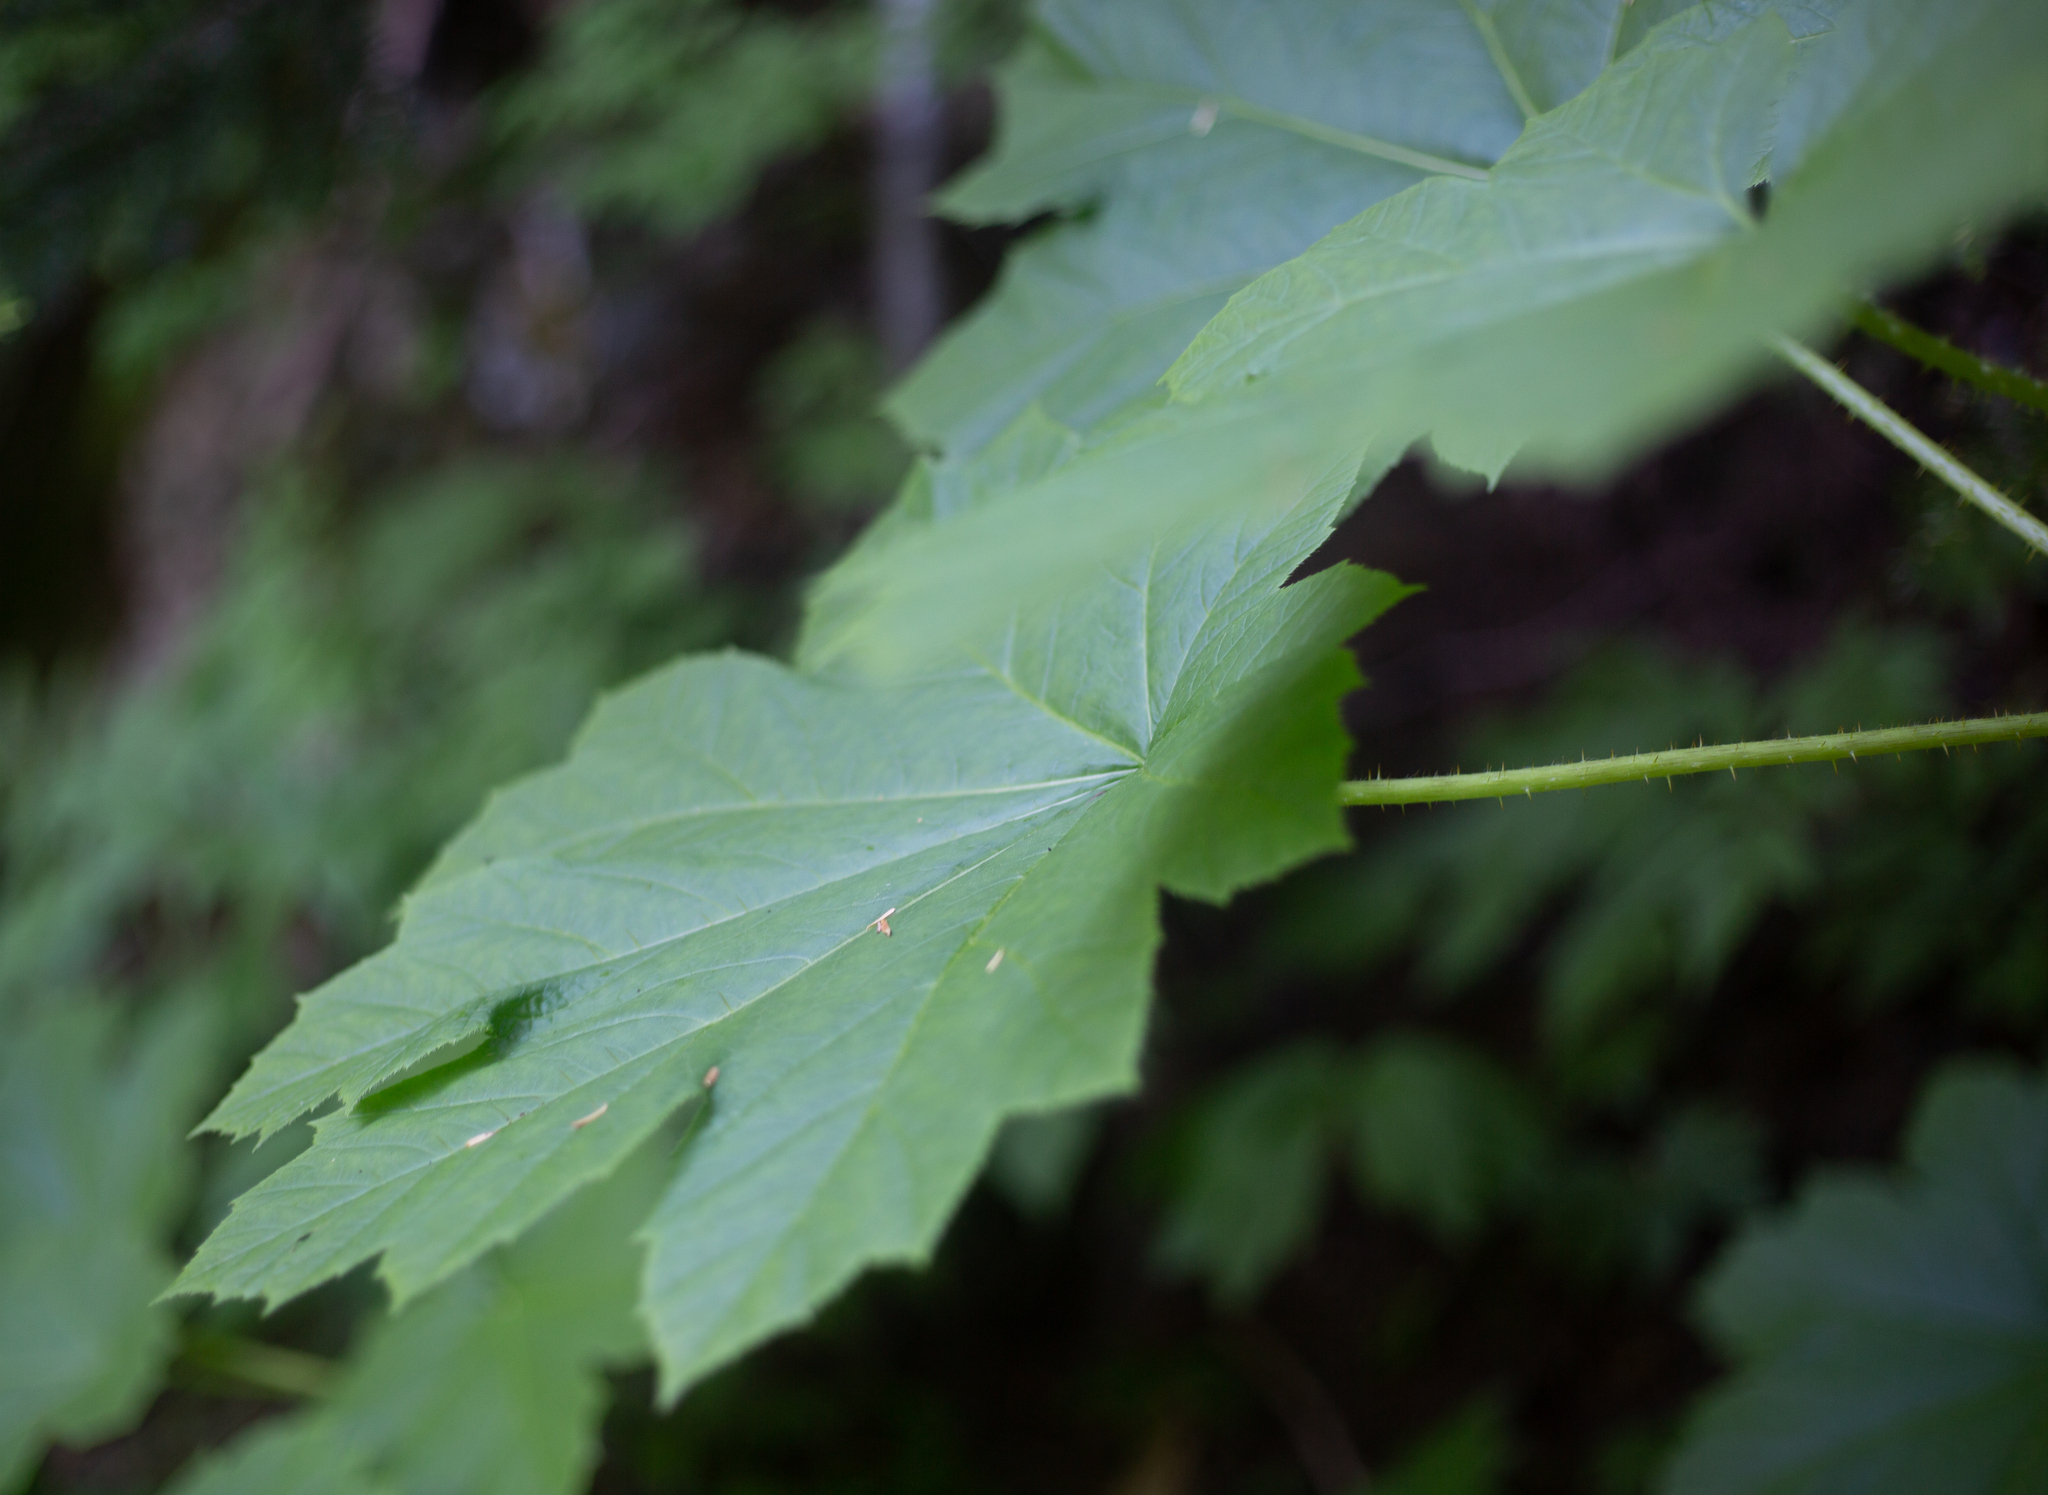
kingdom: Plantae
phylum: Tracheophyta
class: Magnoliopsida
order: Apiales
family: Araliaceae
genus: Oplopanax
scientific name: Oplopanax horridus
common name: Devil's walking-stick
